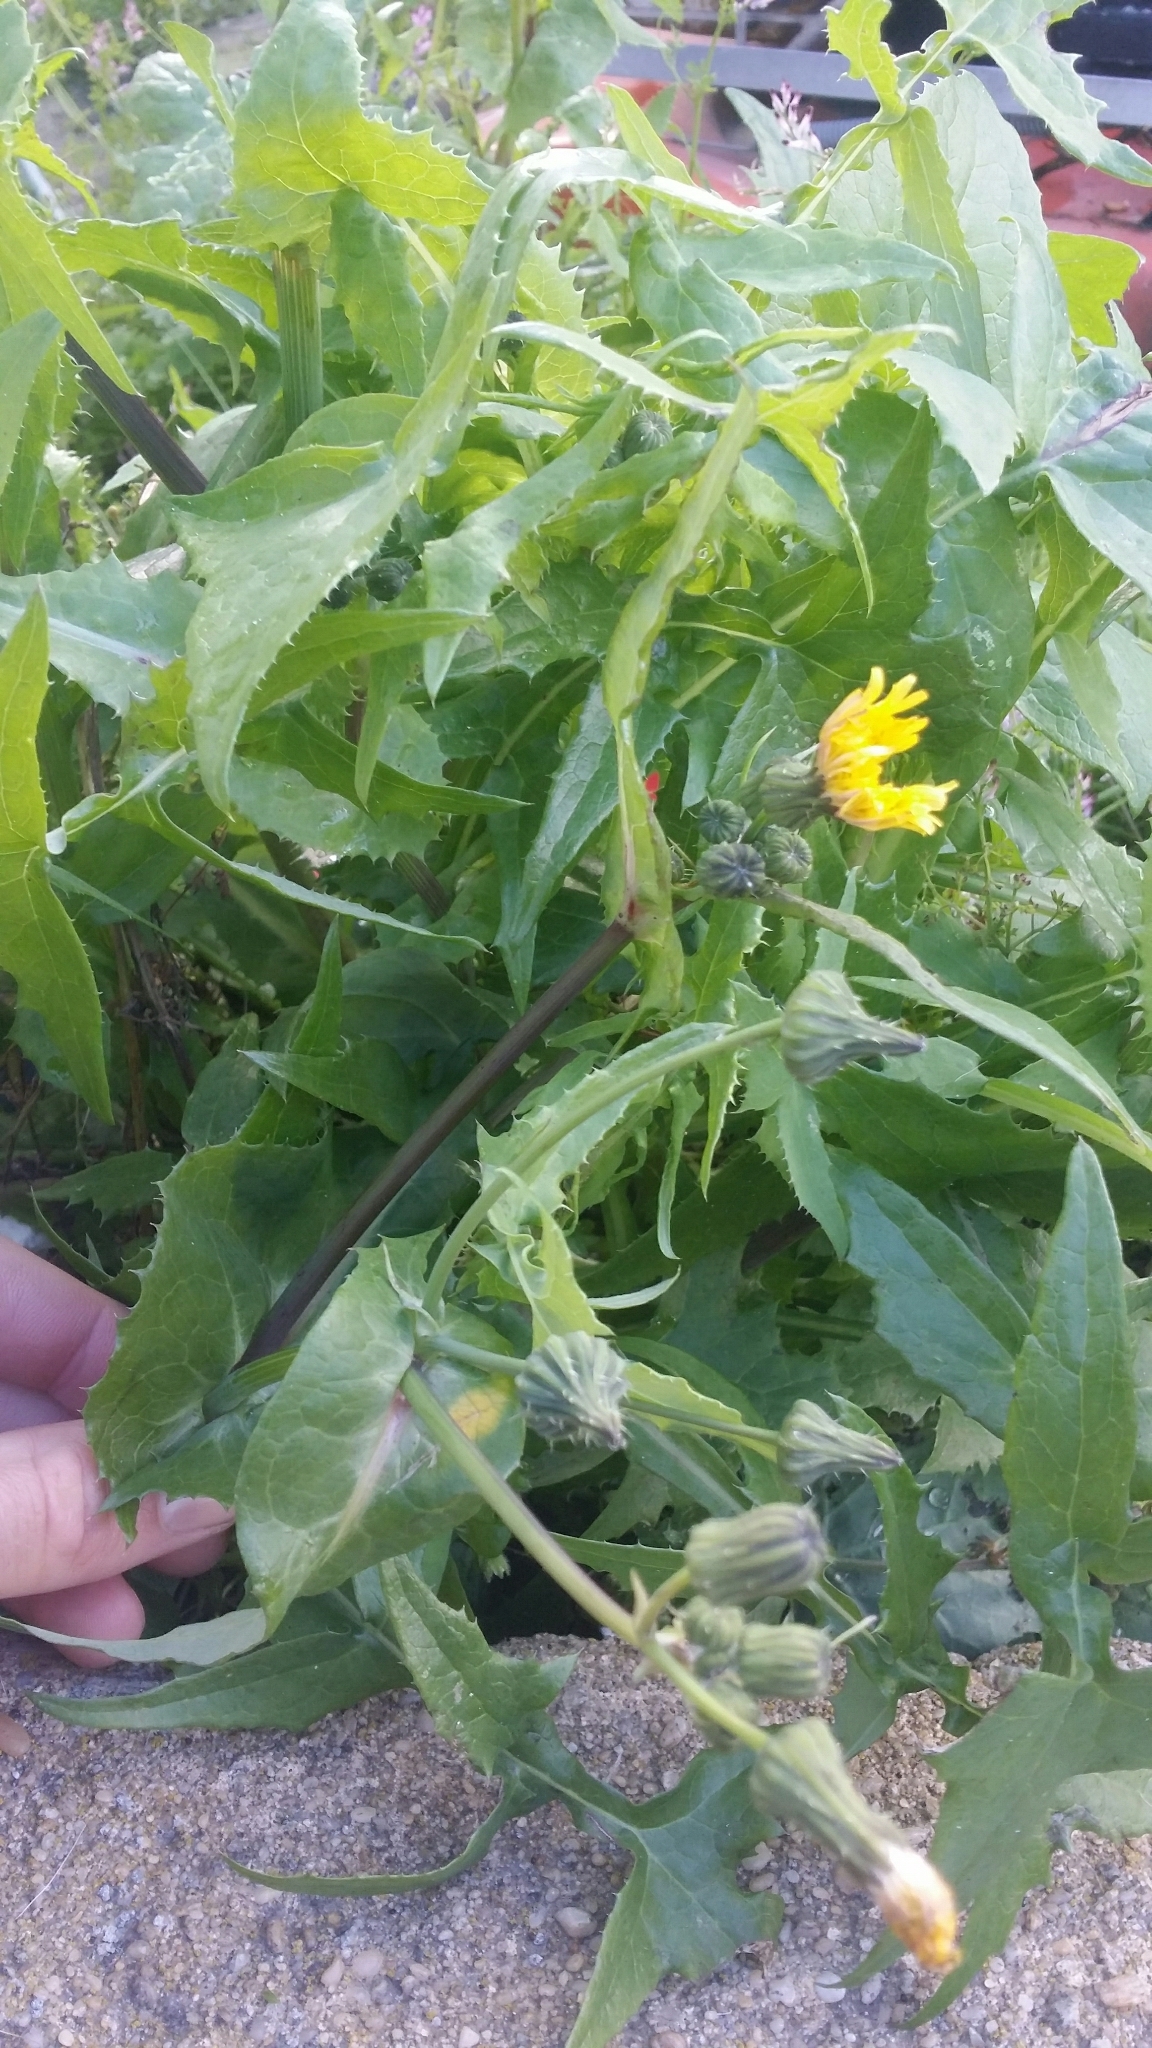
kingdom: Plantae
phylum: Tracheophyta
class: Magnoliopsida
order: Asterales
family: Asteraceae
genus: Sonchus
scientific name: Sonchus oleraceus
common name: Common sowthistle
